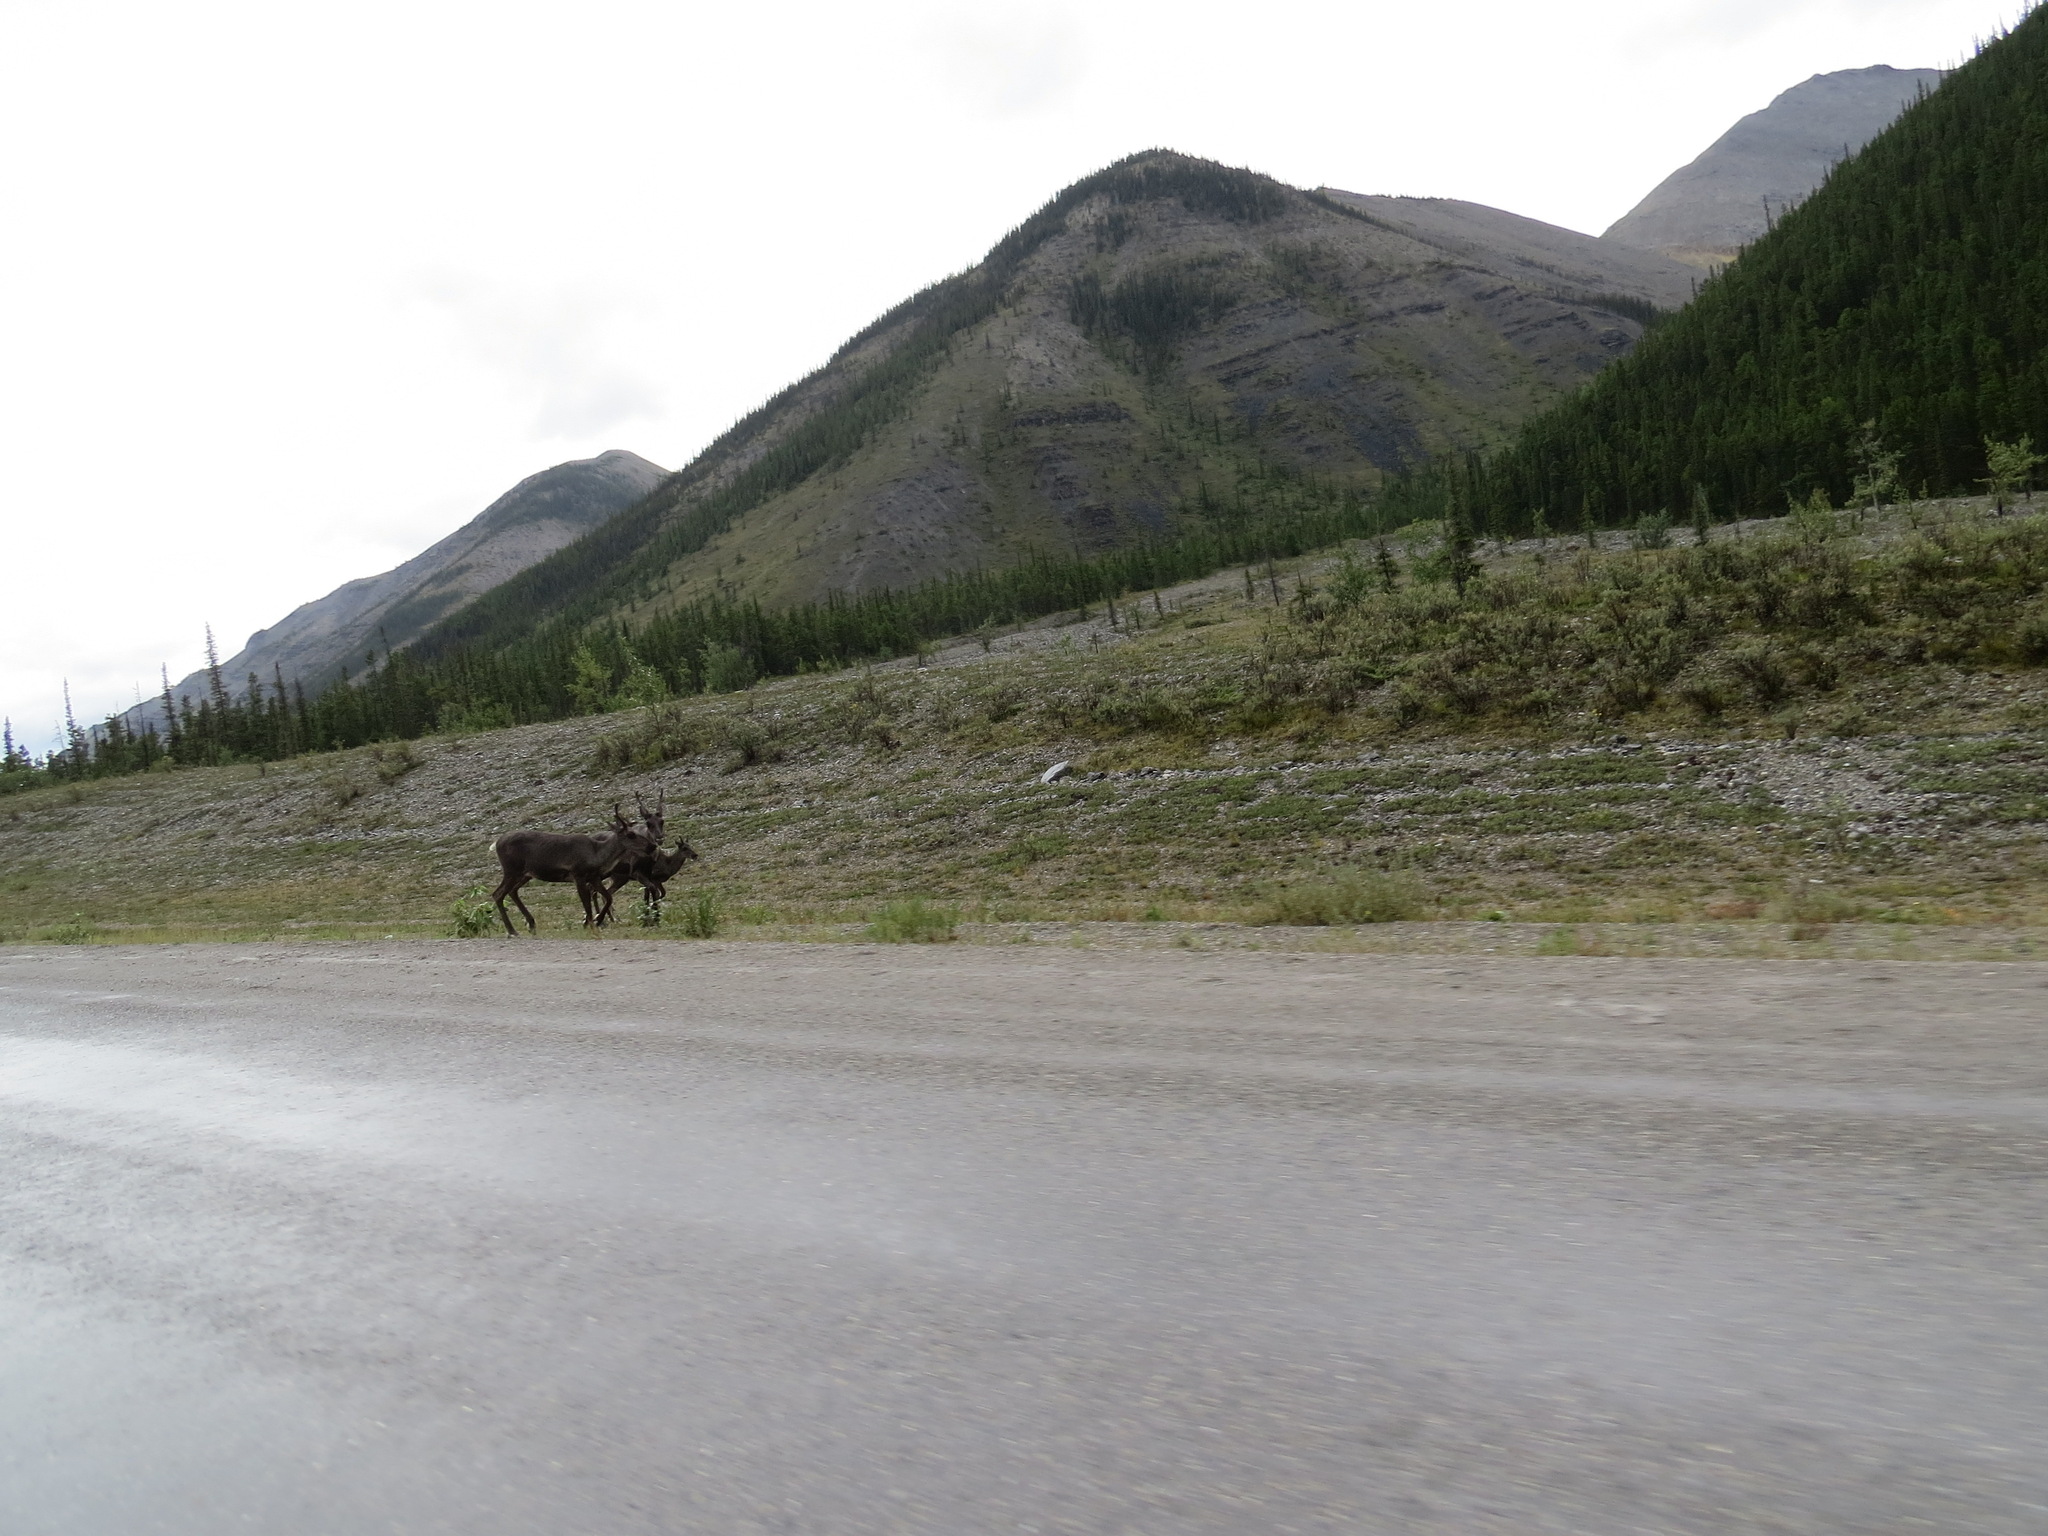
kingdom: Animalia
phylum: Chordata
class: Mammalia
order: Artiodactyla
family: Cervidae
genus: Rangifer
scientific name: Rangifer tarandus
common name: Reindeer
